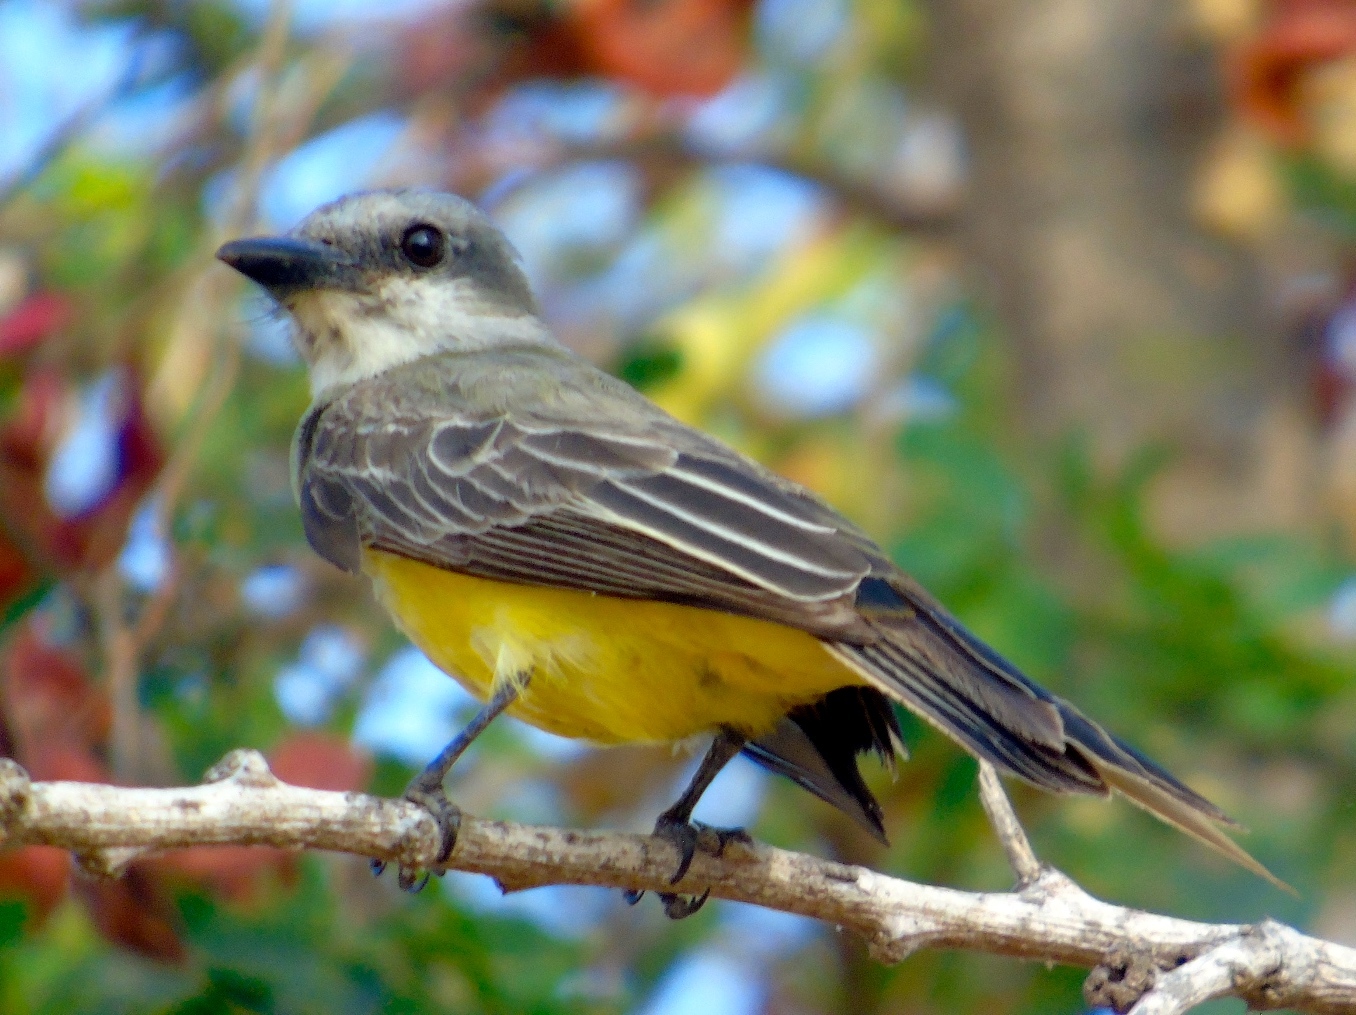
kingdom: Animalia
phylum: Chordata
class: Aves
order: Passeriformes
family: Tyrannidae
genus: Tyrannus
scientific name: Tyrannus melancholicus
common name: Tropical kingbird
